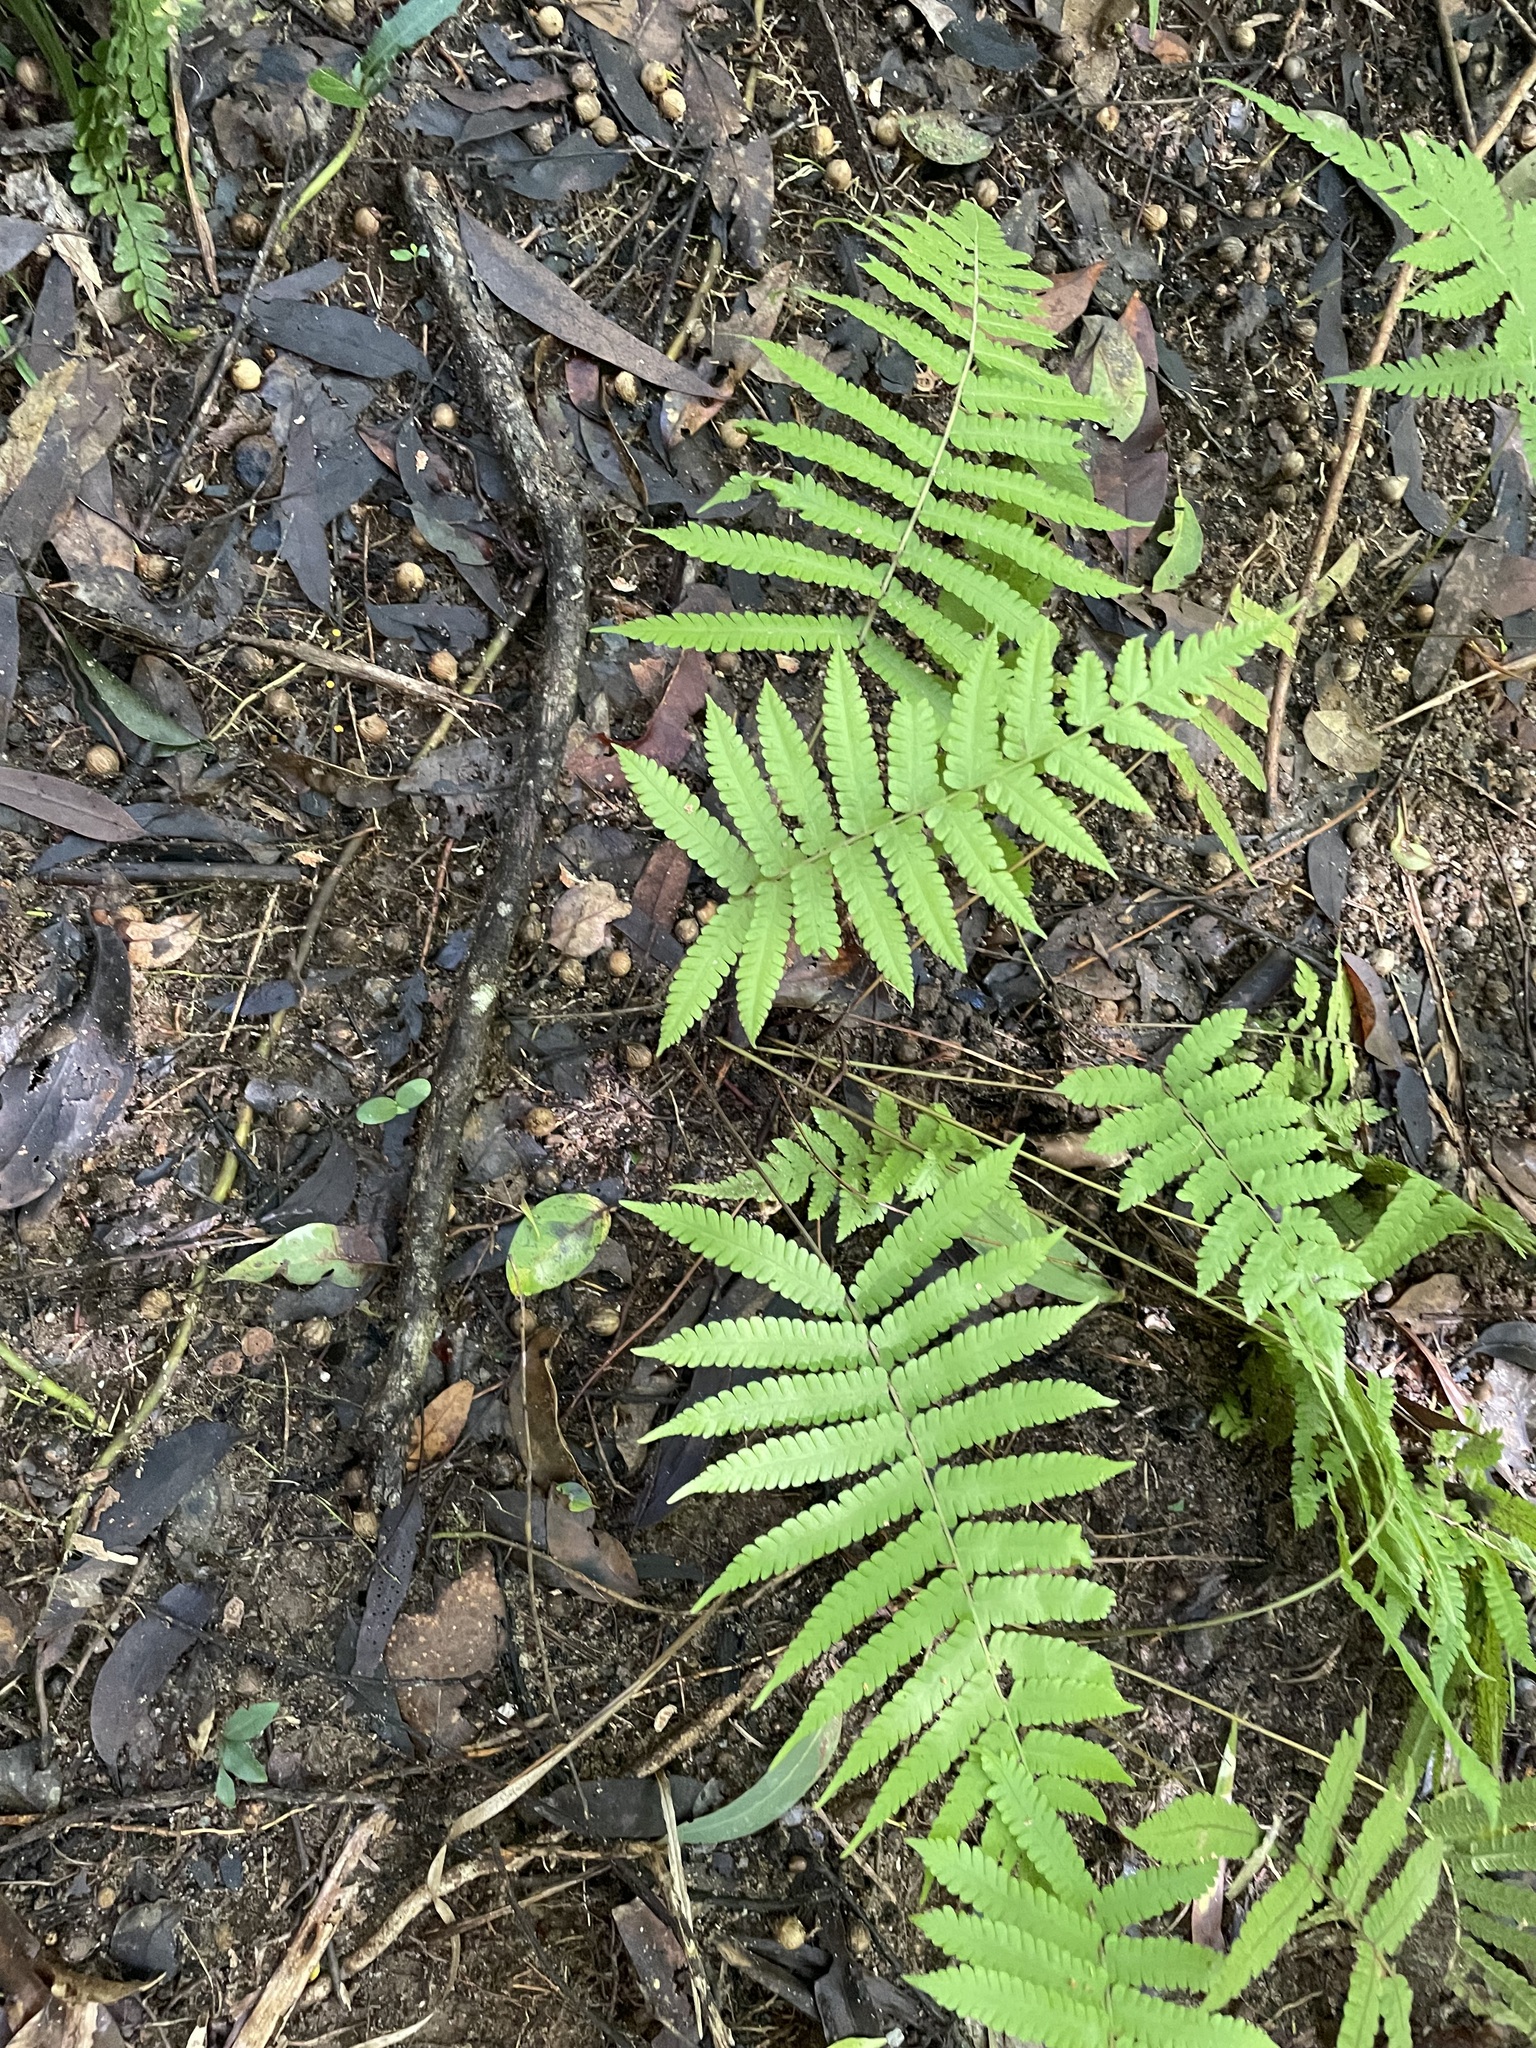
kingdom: Plantae
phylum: Tracheophyta
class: Polypodiopsida
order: Polypodiales
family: Thelypteridaceae
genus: Christella
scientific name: Christella parasitica
